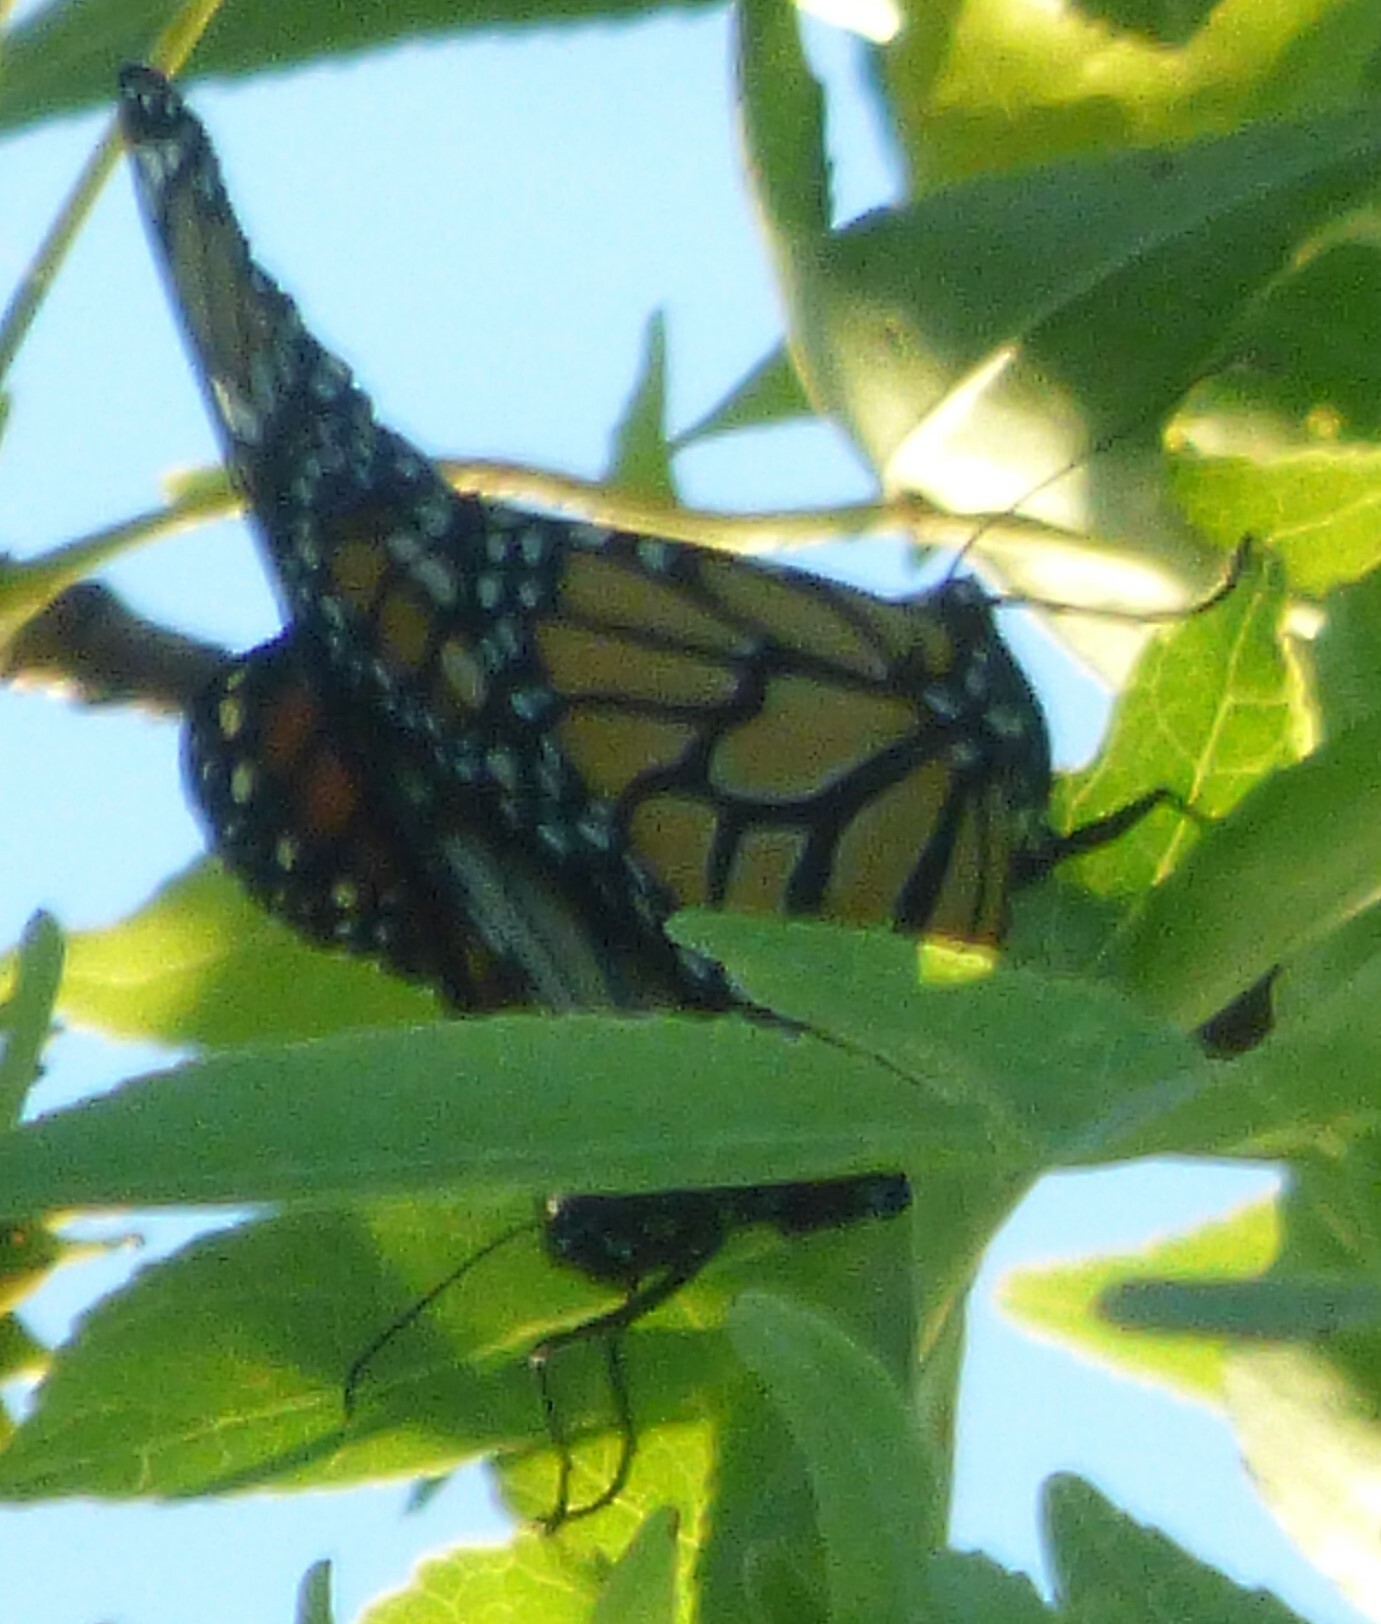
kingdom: Animalia
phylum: Arthropoda
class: Insecta
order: Lepidoptera
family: Nymphalidae
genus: Danaus
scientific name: Danaus plexippus
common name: Monarch
